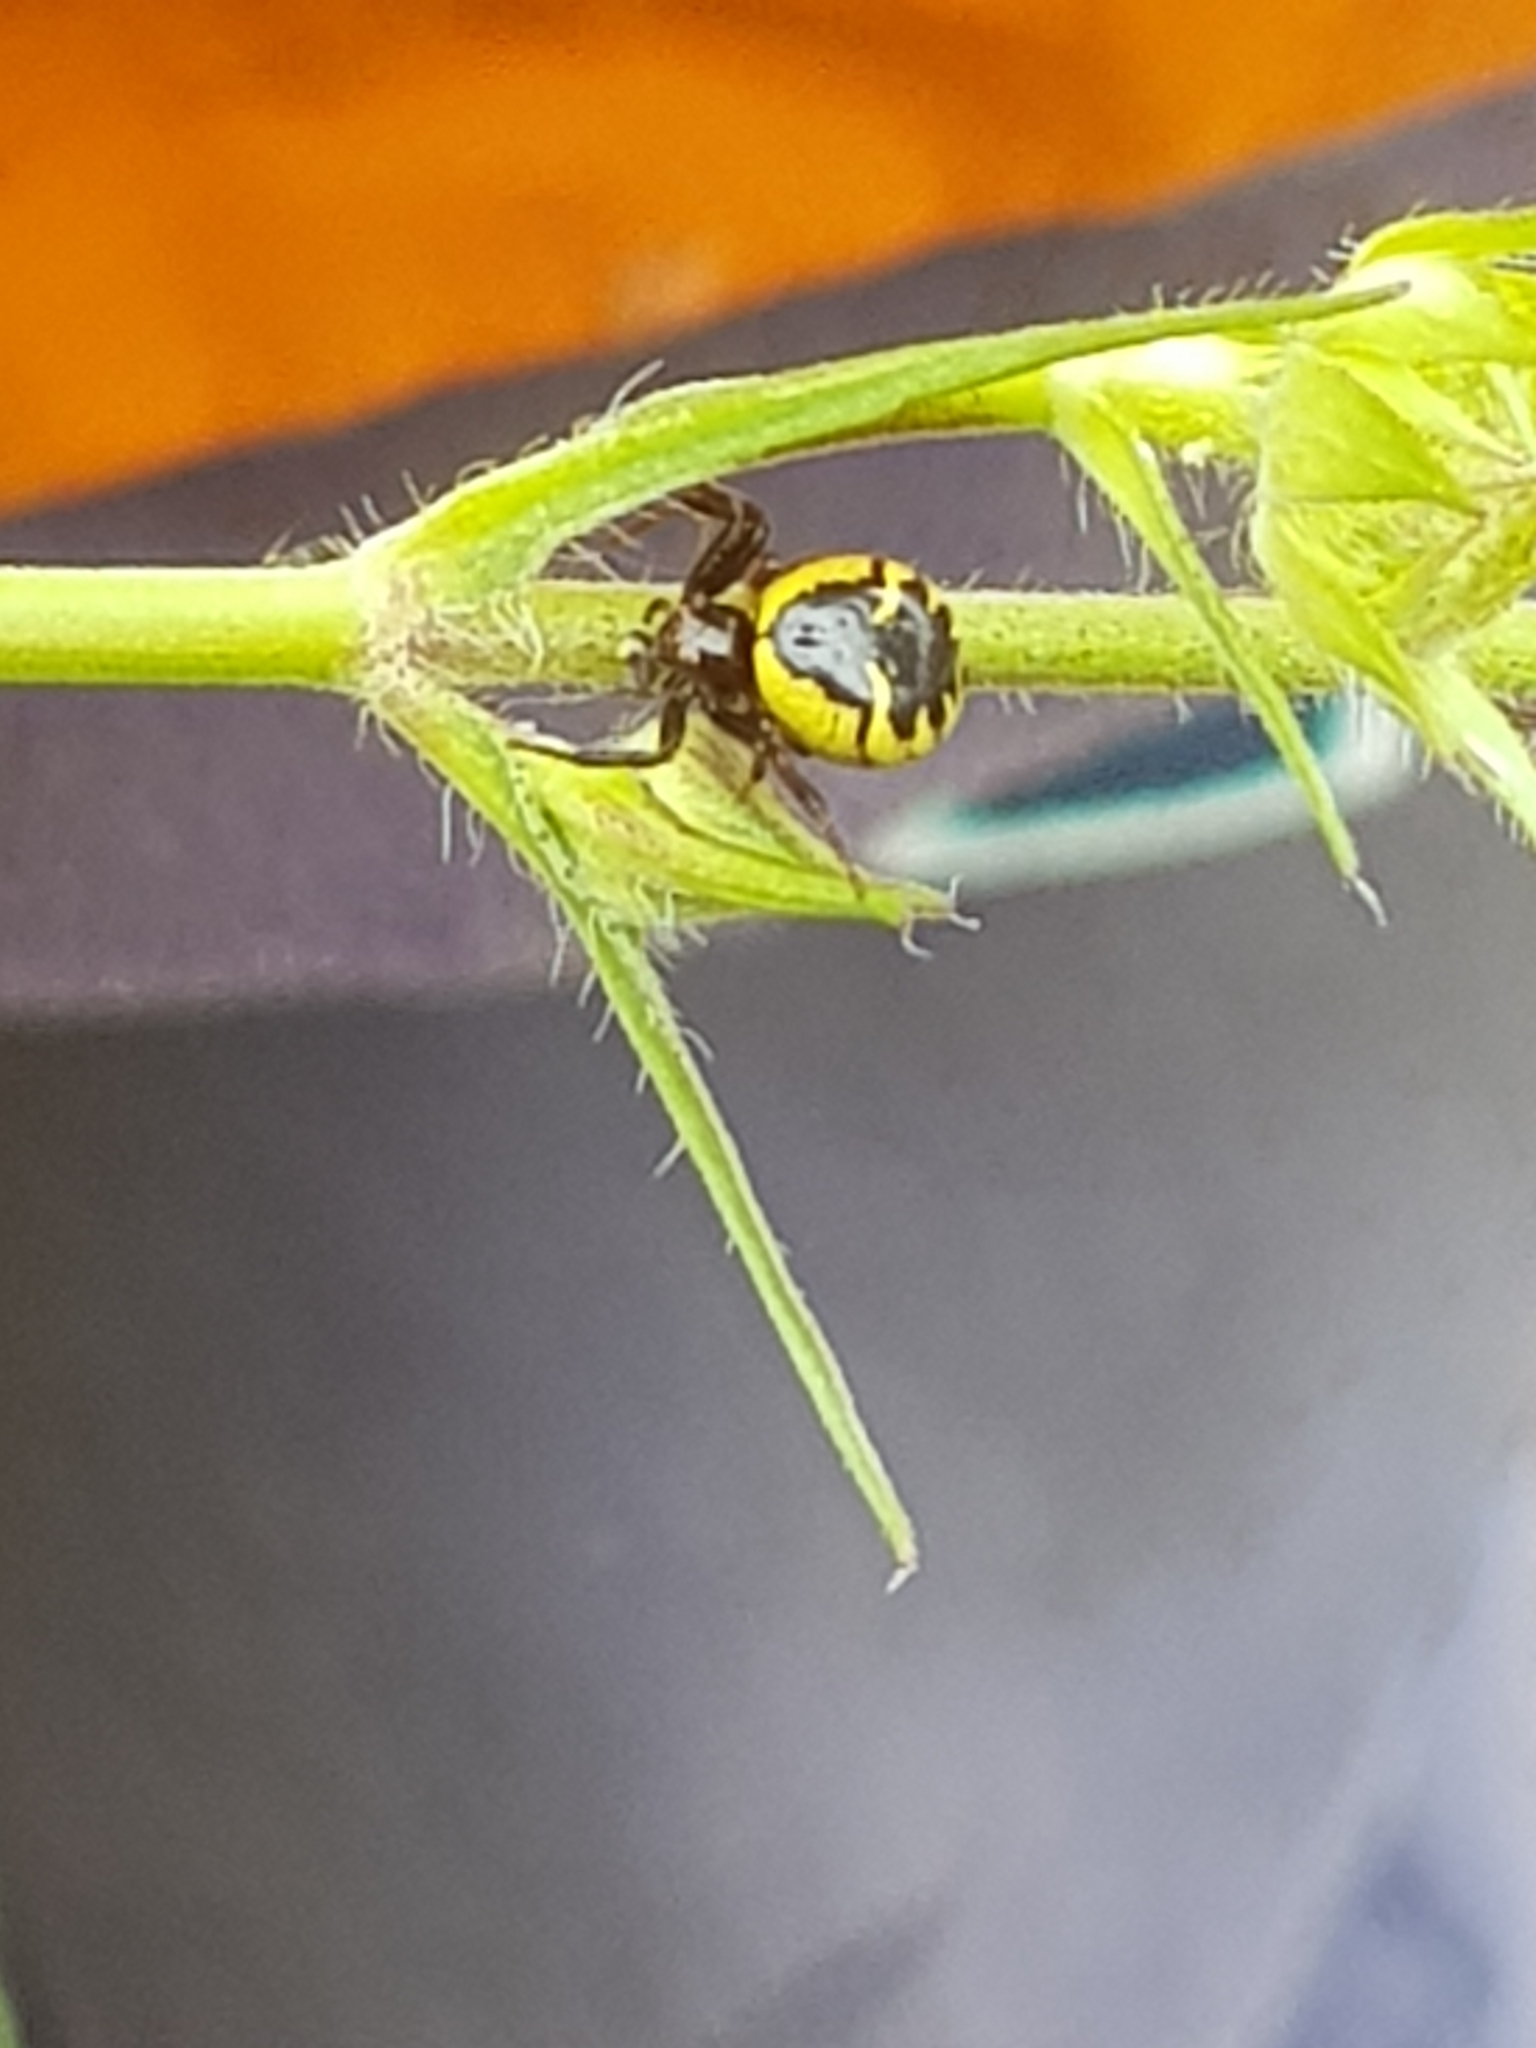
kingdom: Animalia
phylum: Arthropoda
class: Arachnida
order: Araneae
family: Thomisidae
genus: Synema
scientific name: Synema globosum
